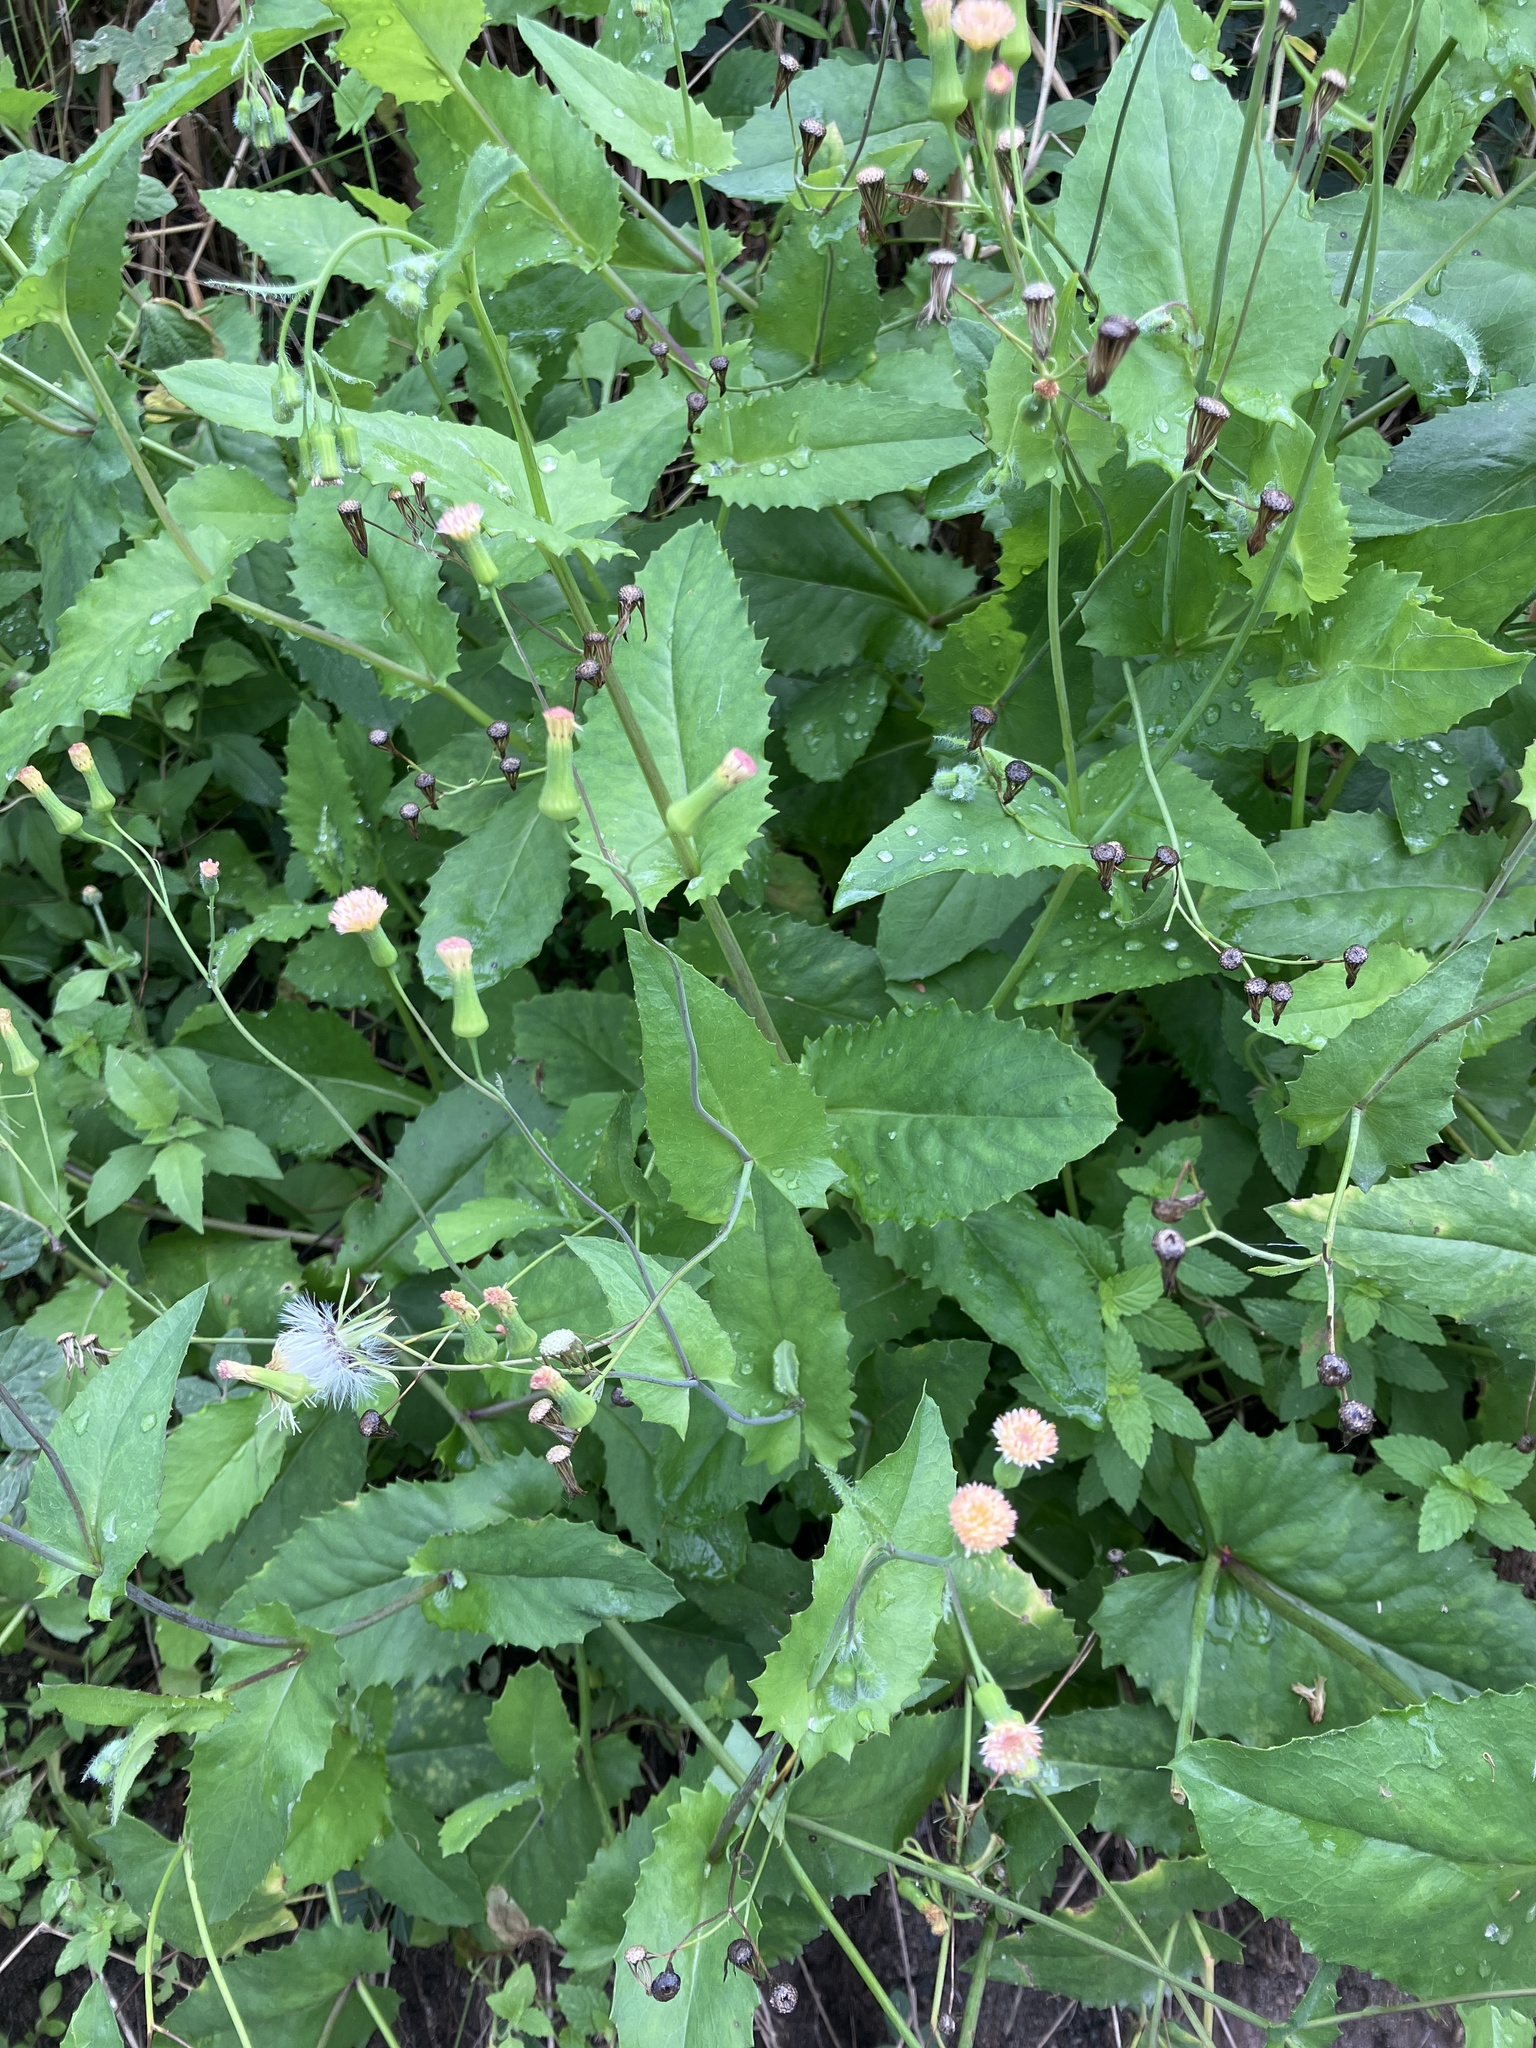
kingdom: Plantae
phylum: Tracheophyta
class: Magnoliopsida
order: Asterales
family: Asteraceae
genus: Emilia
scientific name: Emilia praetermissa
